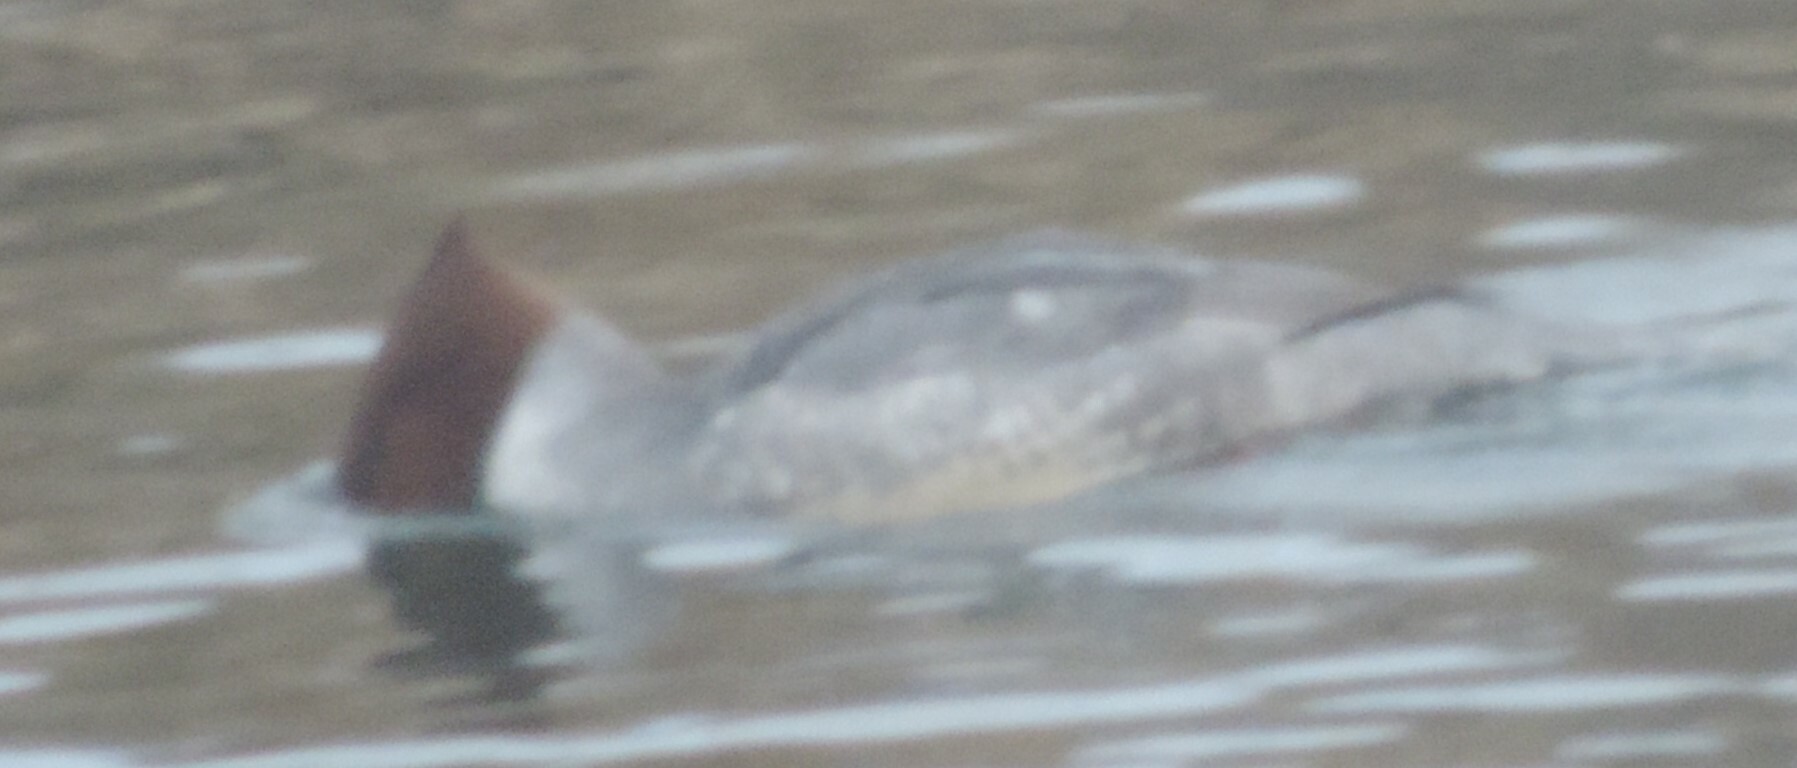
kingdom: Animalia
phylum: Chordata
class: Aves
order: Anseriformes
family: Anatidae
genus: Mergus
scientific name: Mergus merganser
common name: Common merganser
